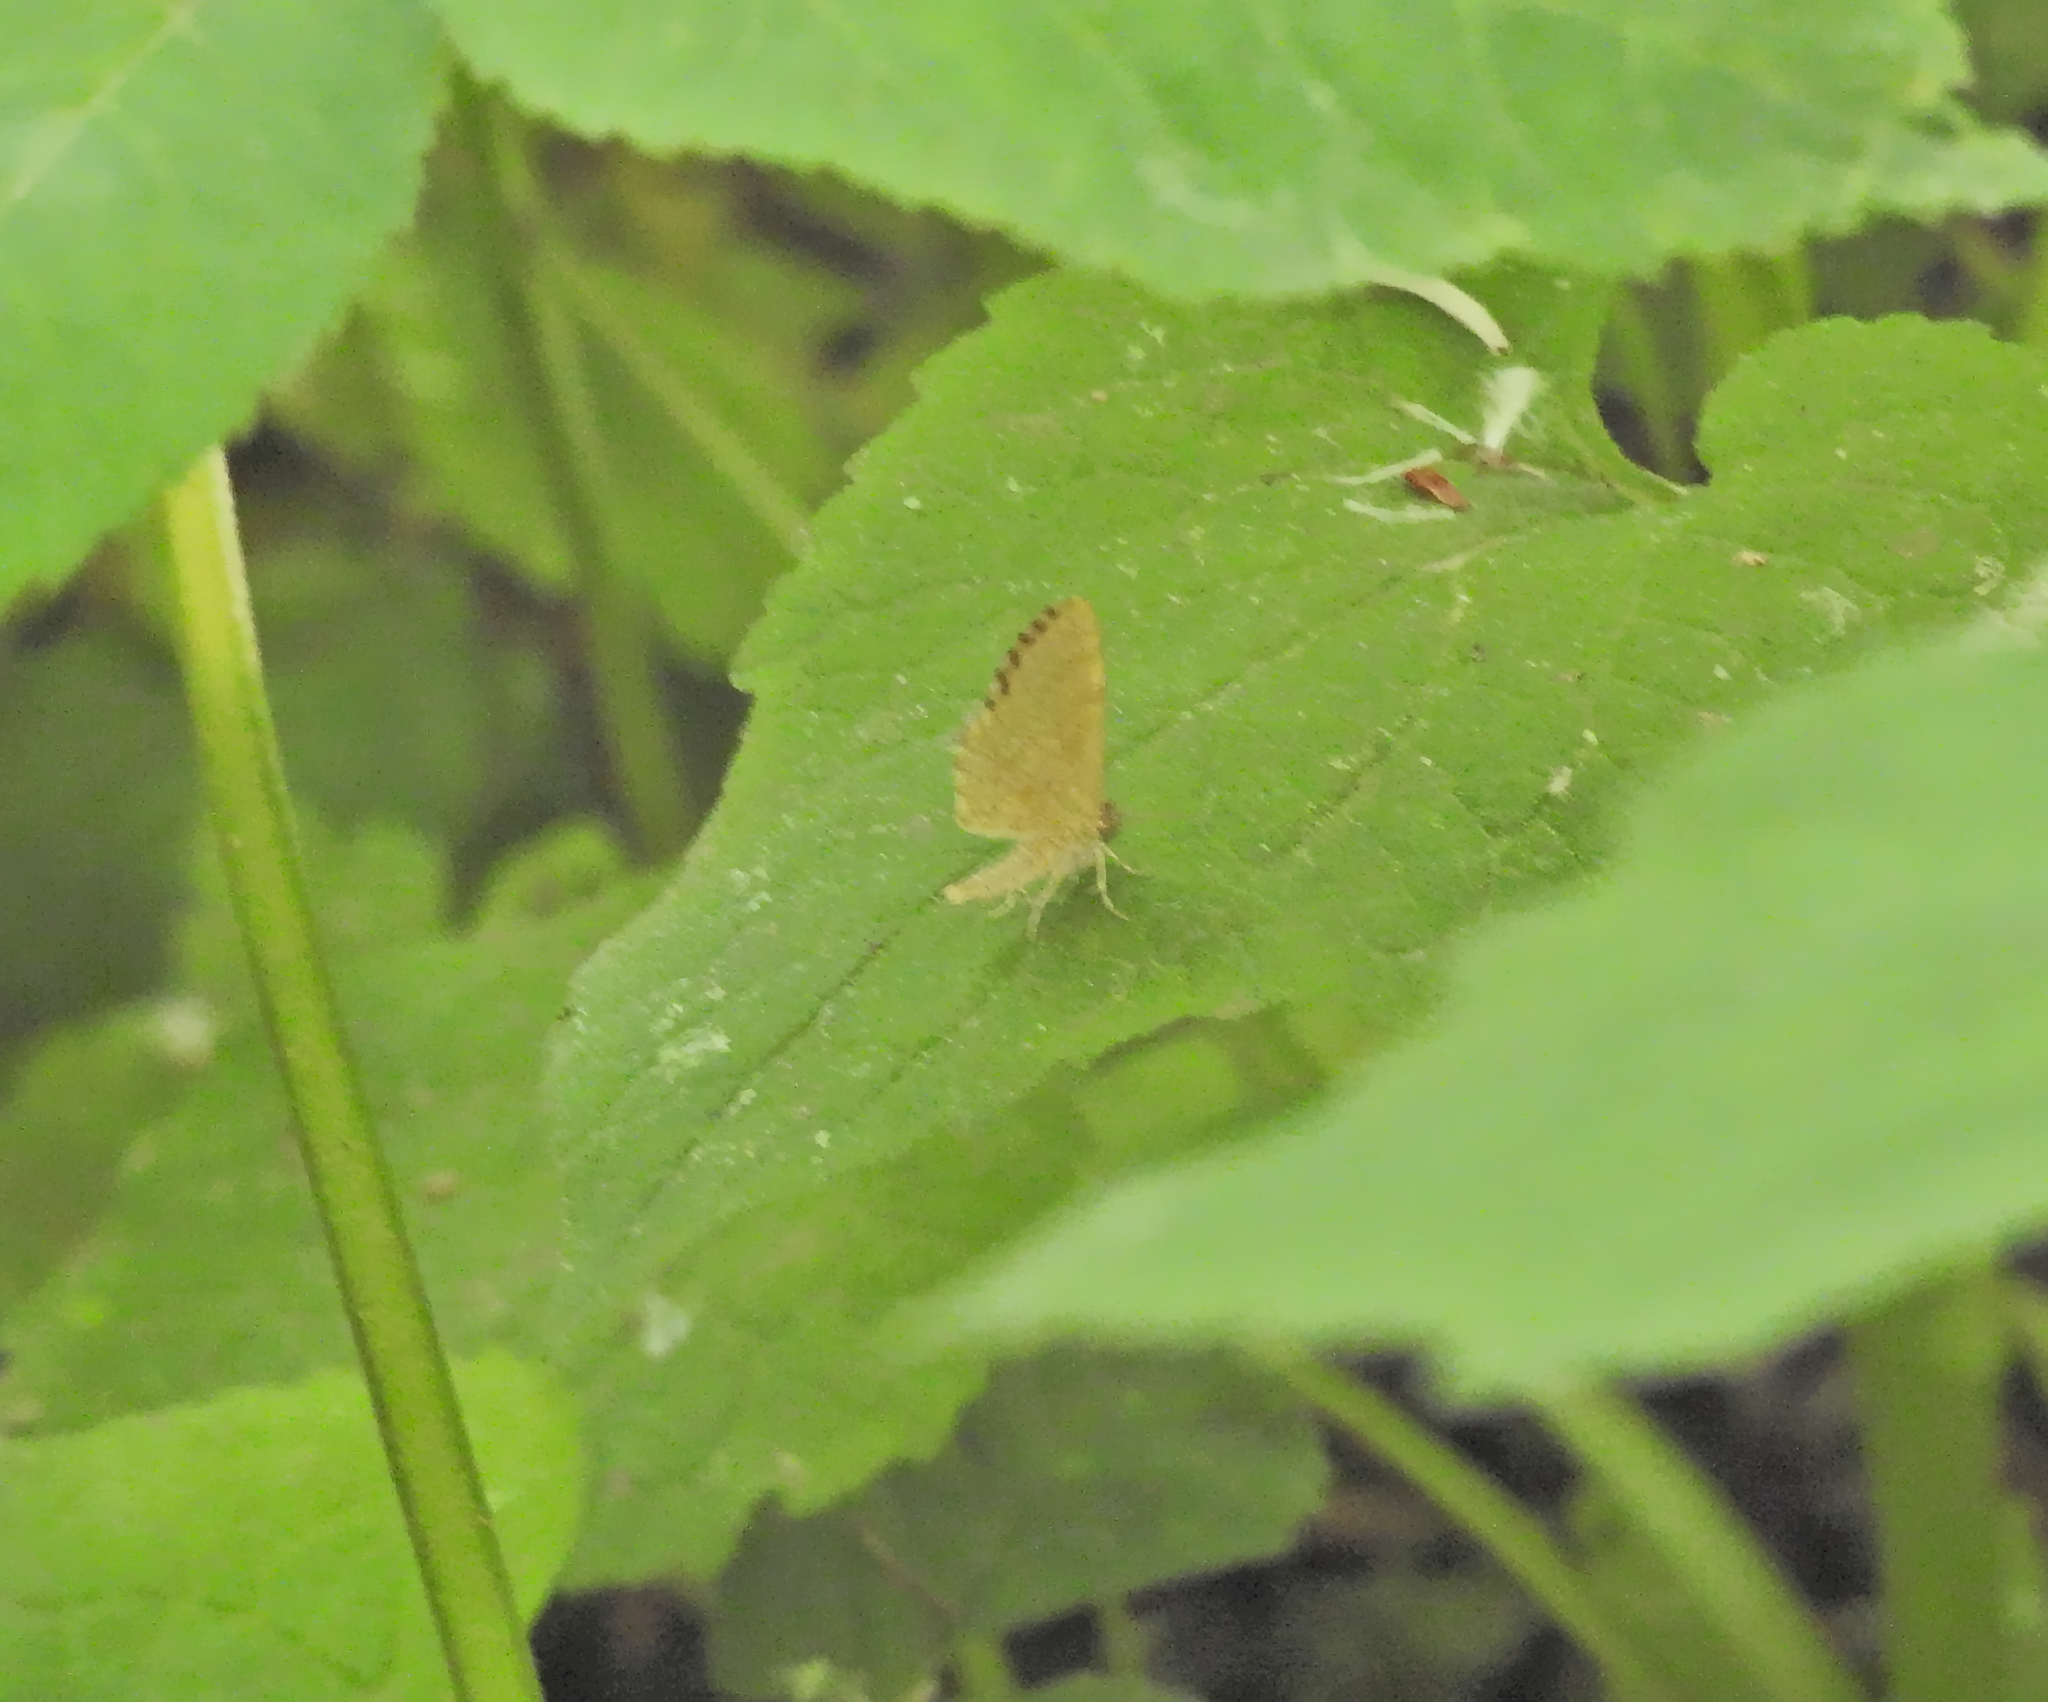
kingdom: Animalia
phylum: Arthropoda
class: Insecta
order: Lepidoptera
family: Geometridae
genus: Euchoeca
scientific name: Euchoeca nebulata
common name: Dingy shell
